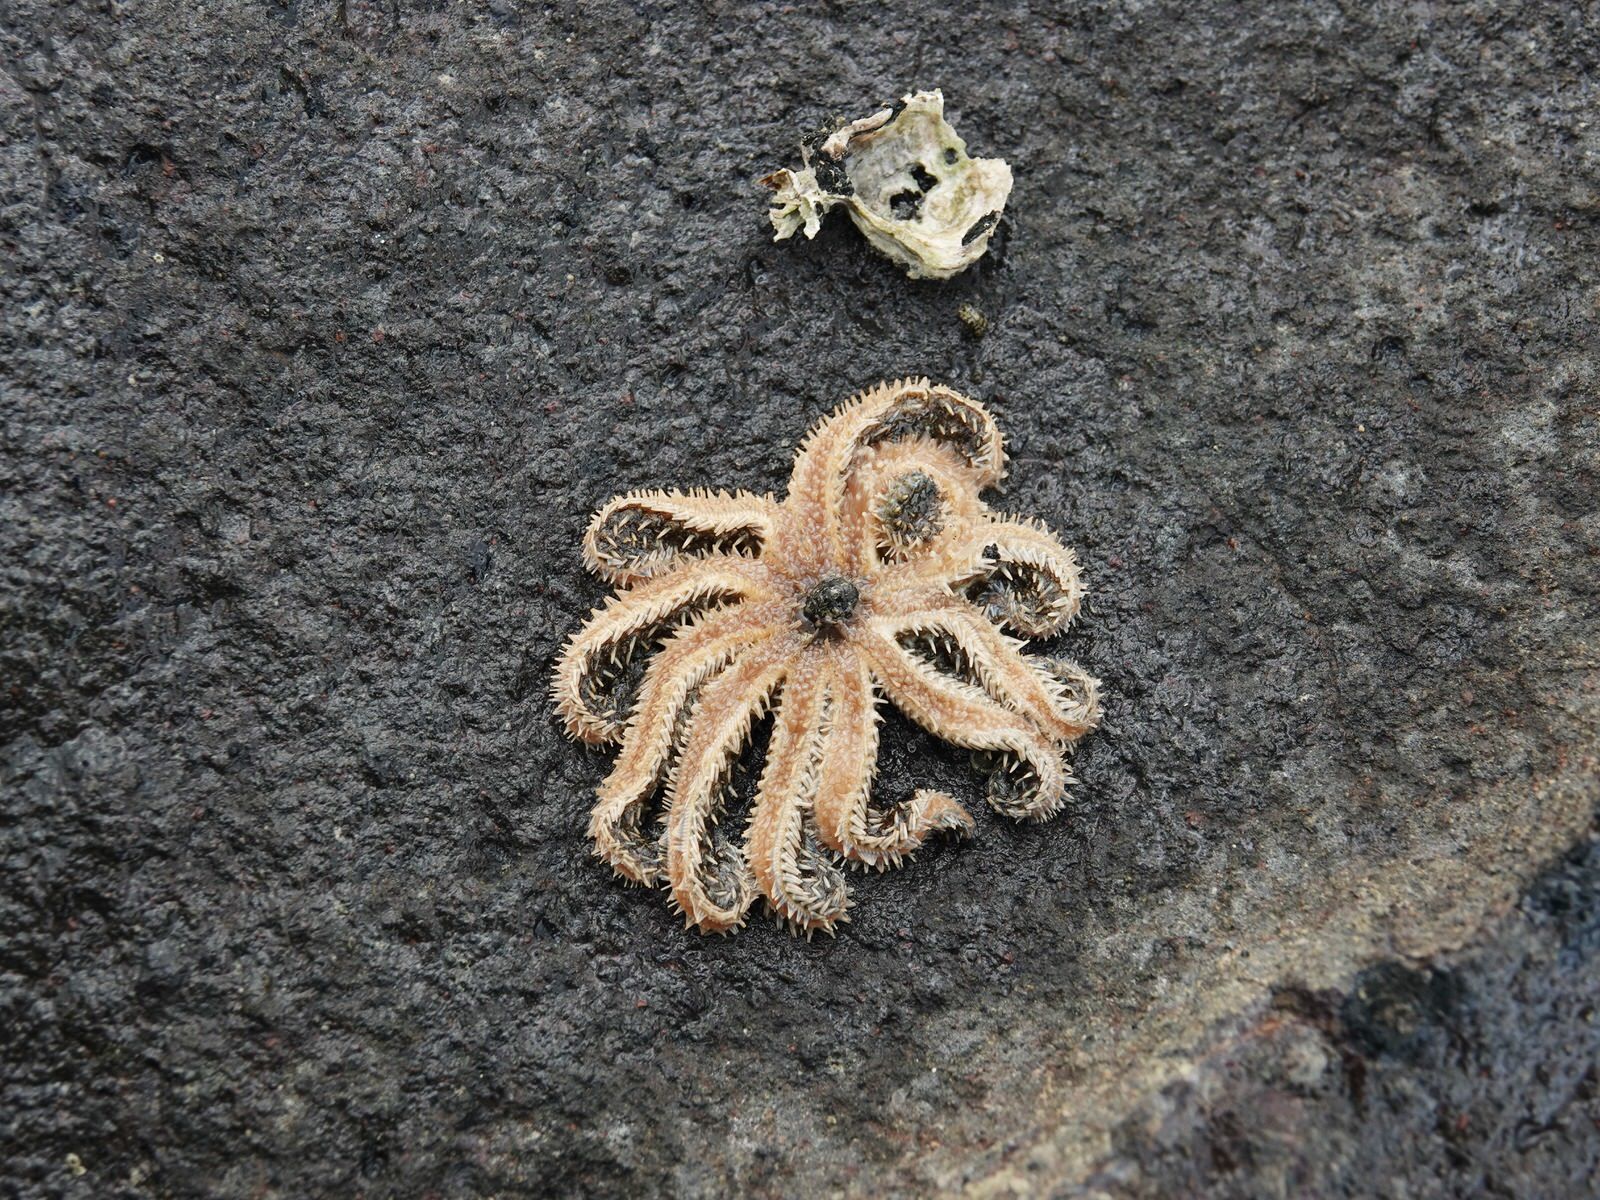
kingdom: Animalia
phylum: Echinodermata
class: Asteroidea
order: Forcipulatida
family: Asteriidae
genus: Coscinasterias
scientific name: Coscinasterias muricata
